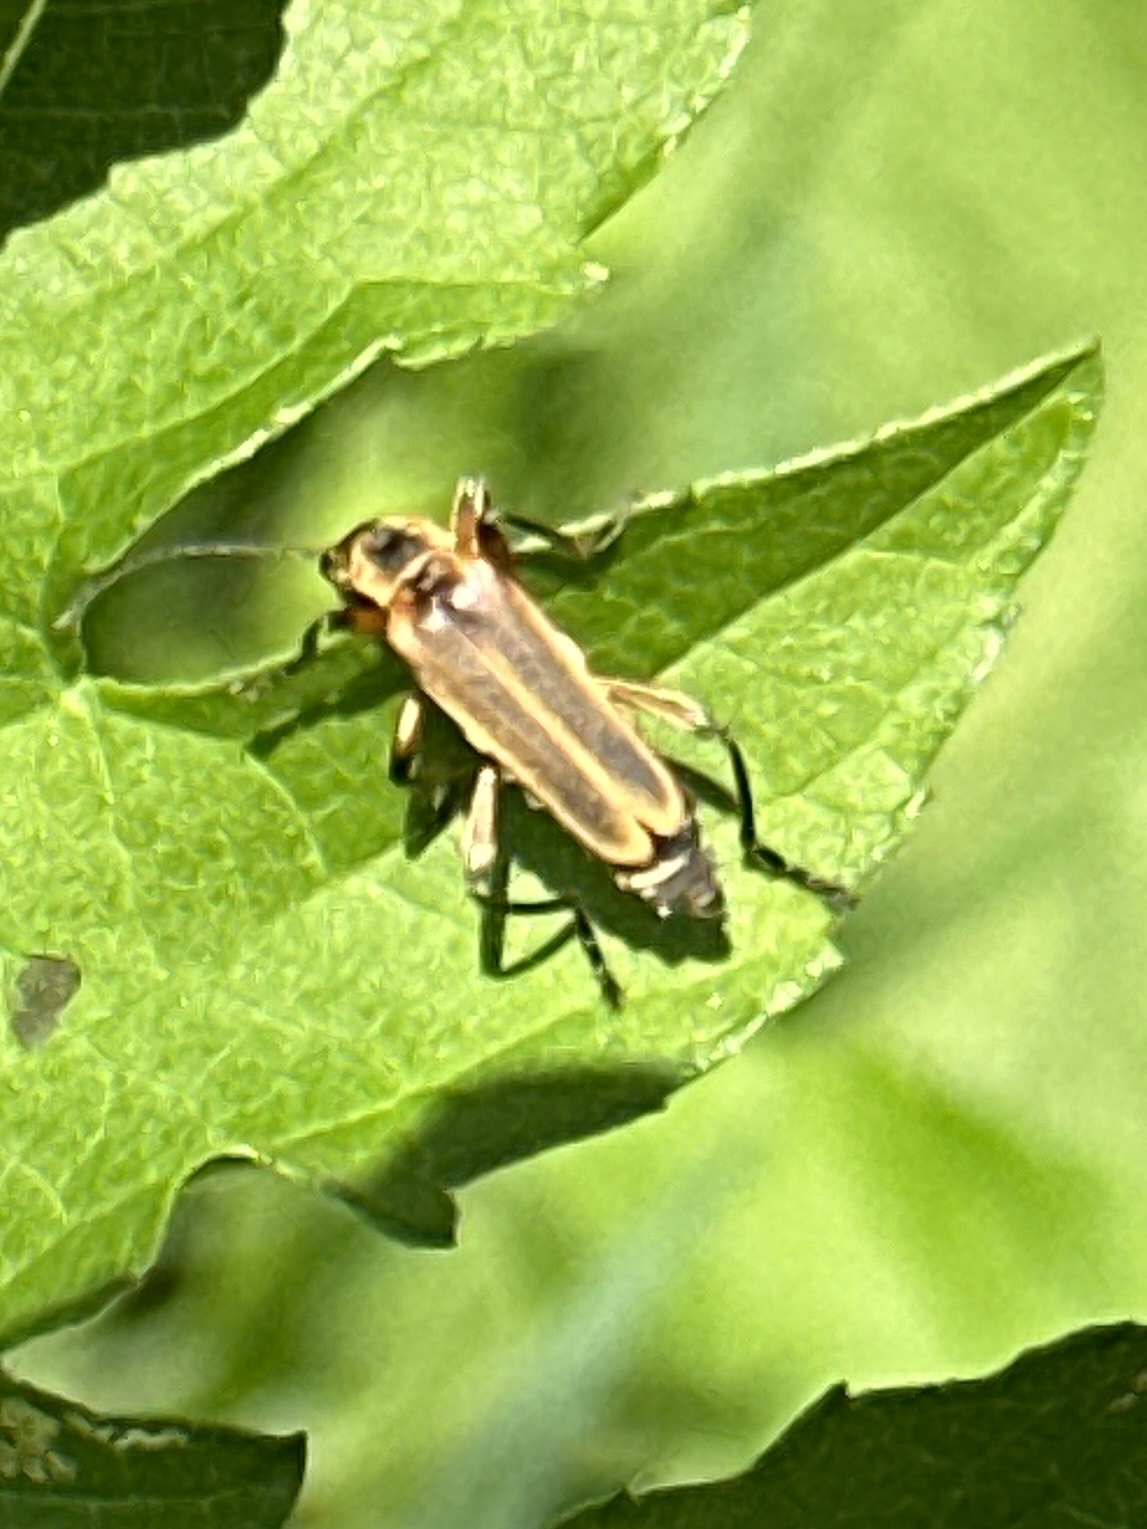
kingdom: Animalia
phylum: Arthropoda
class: Insecta
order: Coleoptera
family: Cantharidae
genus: Chauliognathus
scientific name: Chauliognathus marginatus
